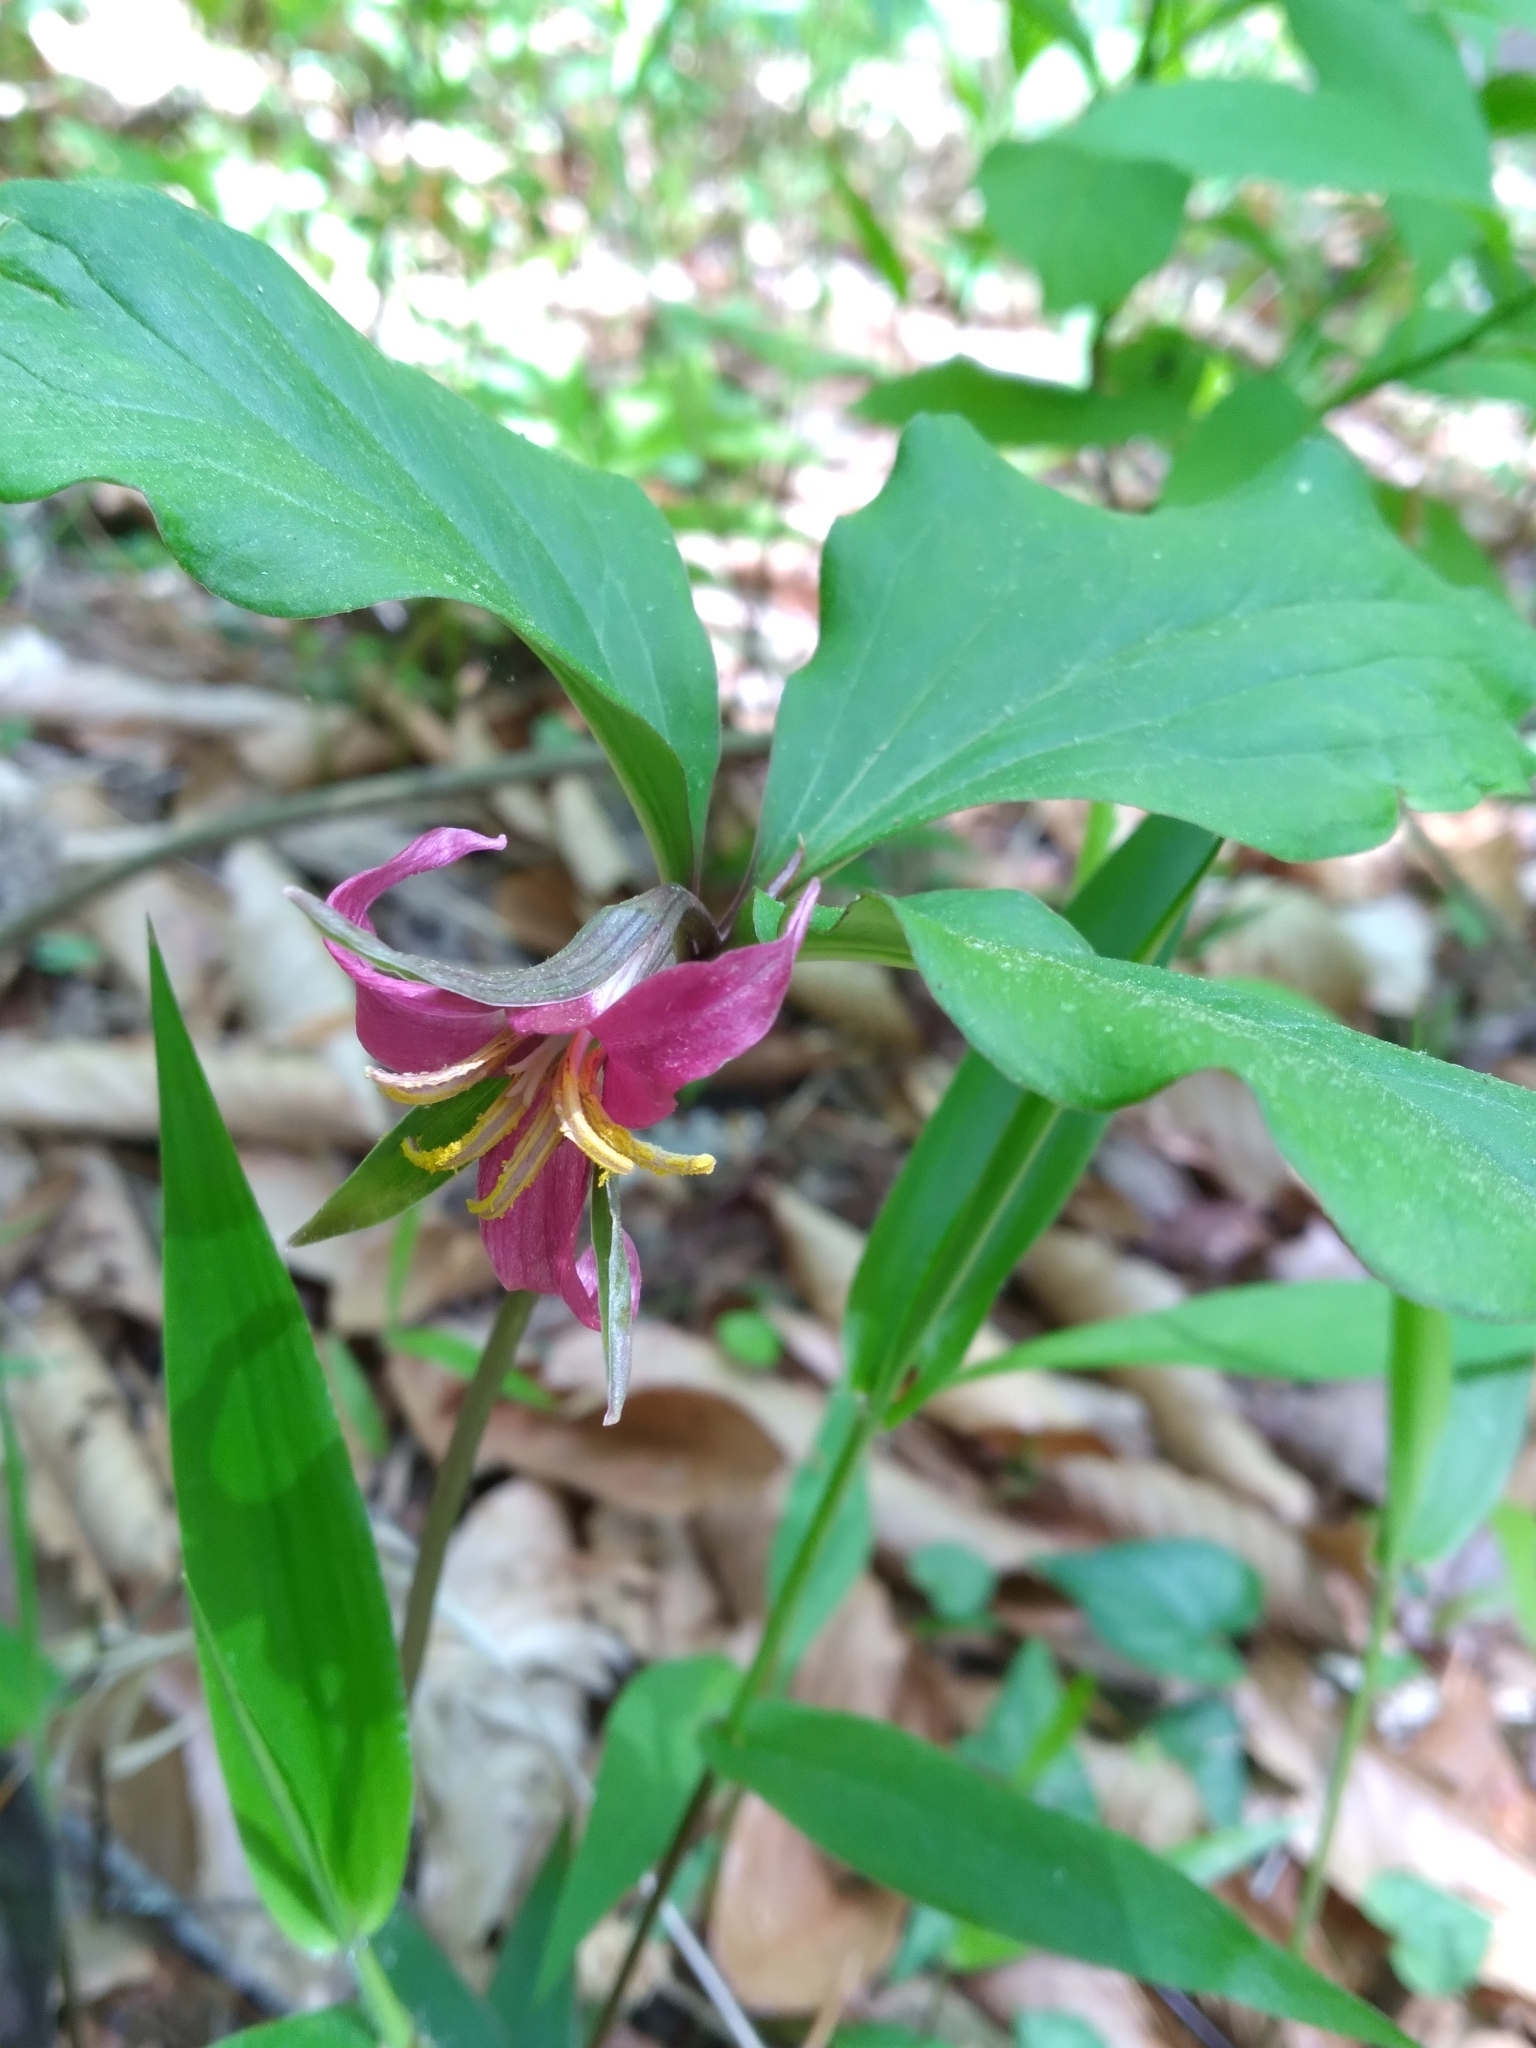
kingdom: Plantae
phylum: Tracheophyta
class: Liliopsida
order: Liliales
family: Melanthiaceae
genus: Trillium
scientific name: Trillium catesbaei
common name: Bashful trillium
